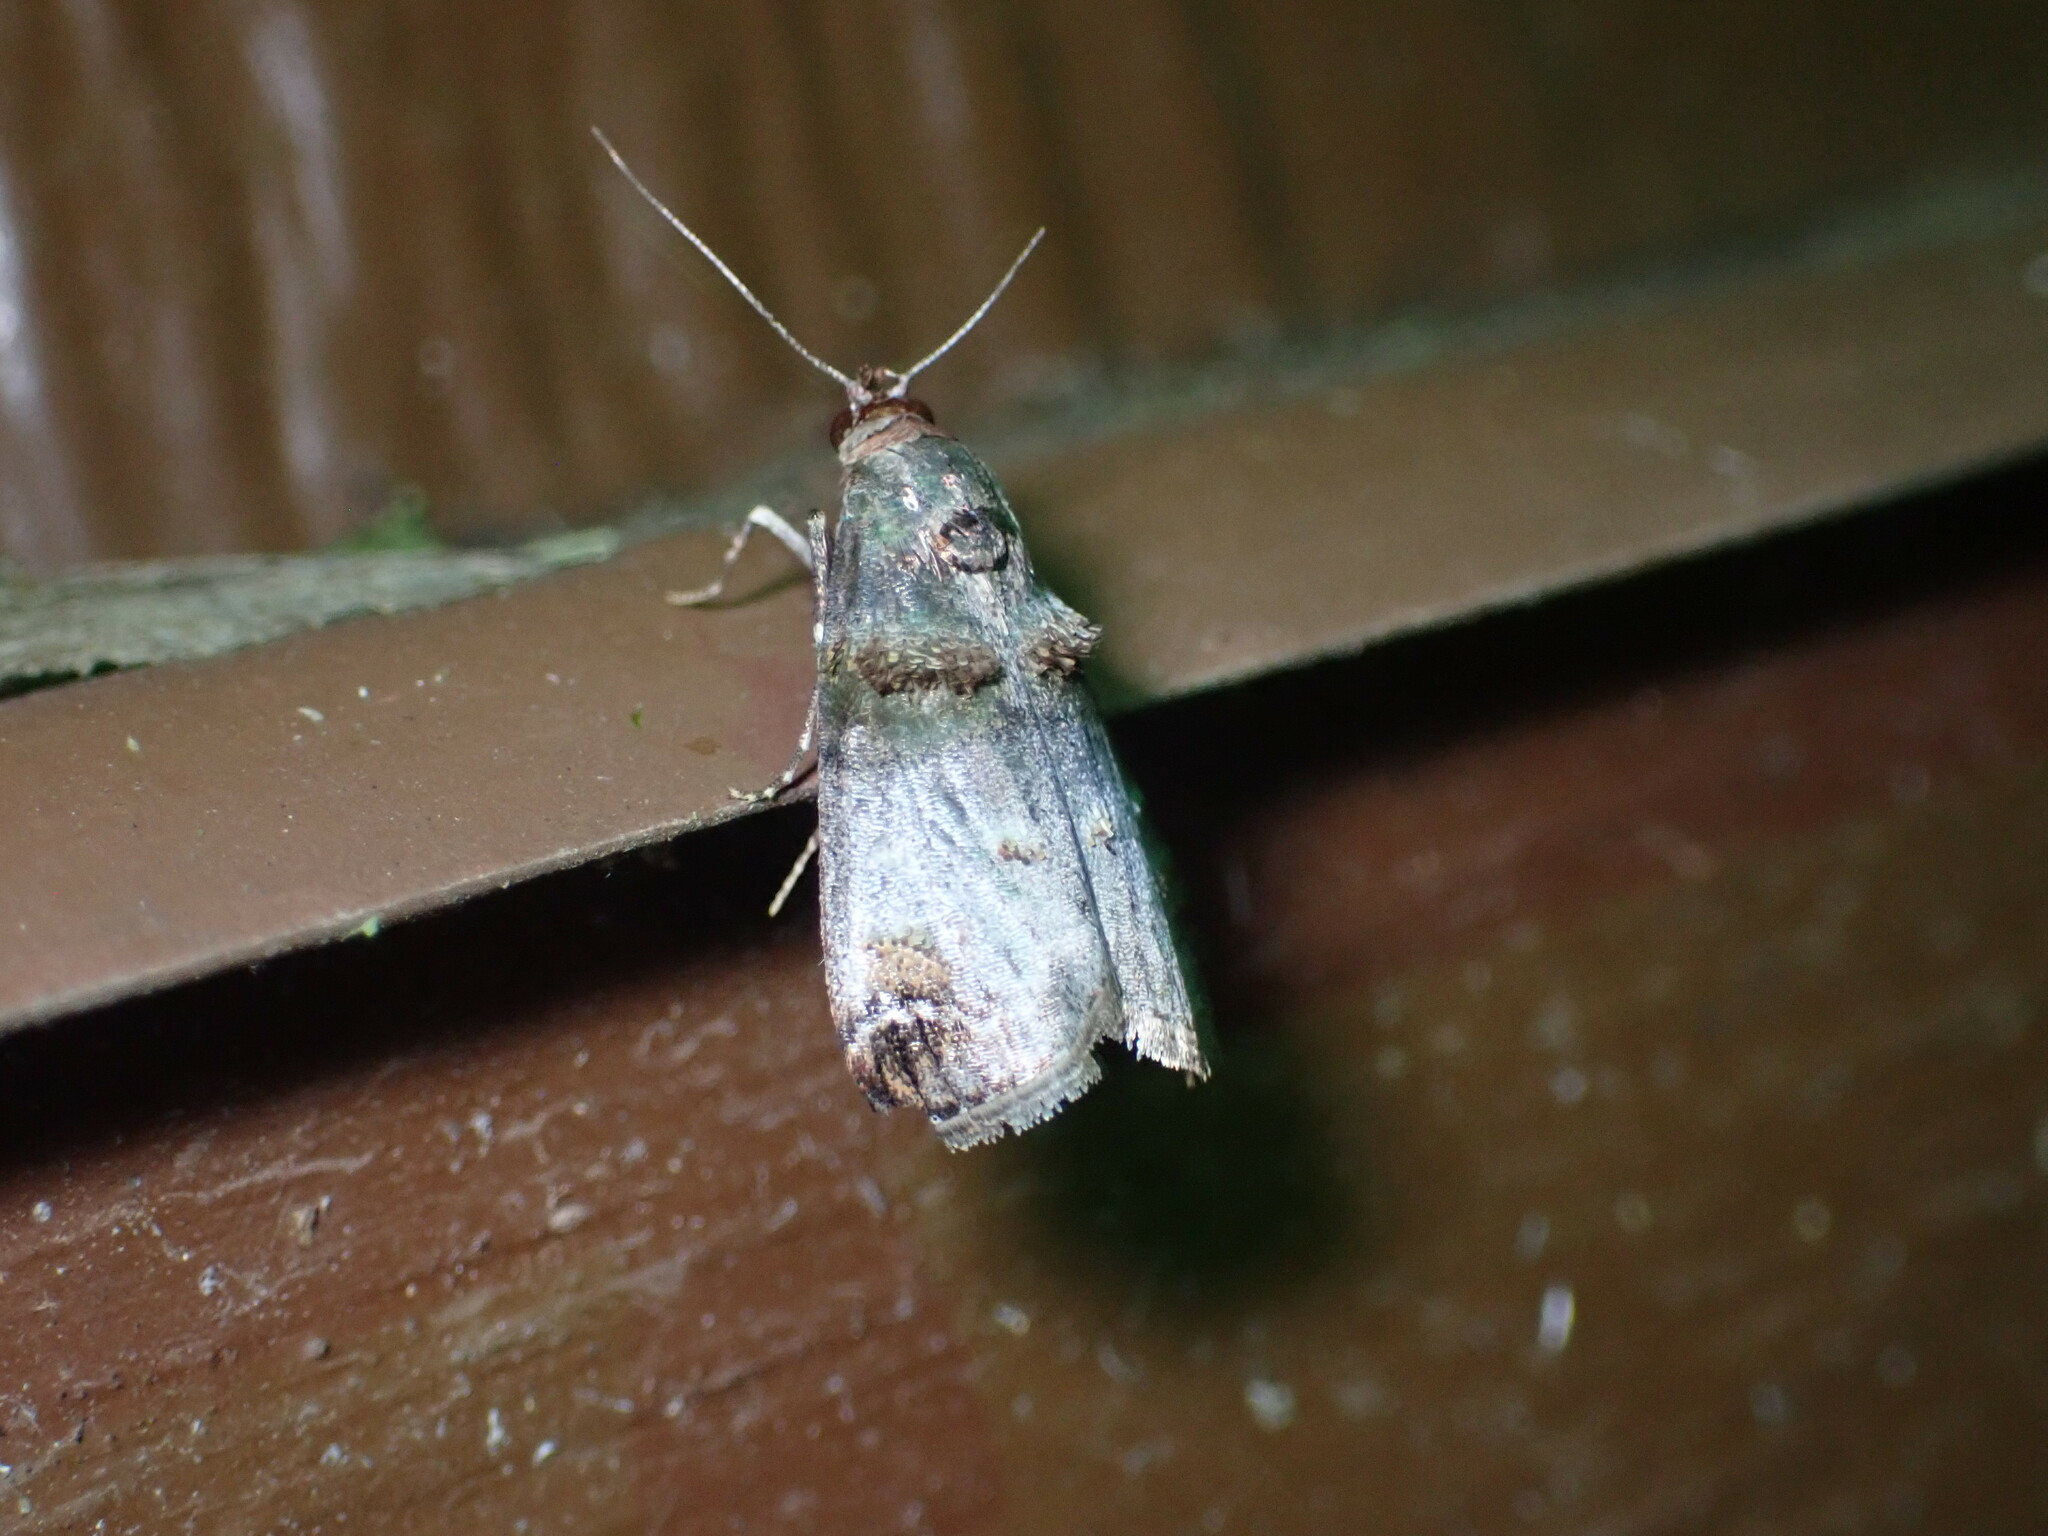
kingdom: Animalia
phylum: Arthropoda
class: Insecta
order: Lepidoptera
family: Pyralidae
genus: Oneida
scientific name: Oneida lunulalis
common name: Orange-tufted oneida moth
